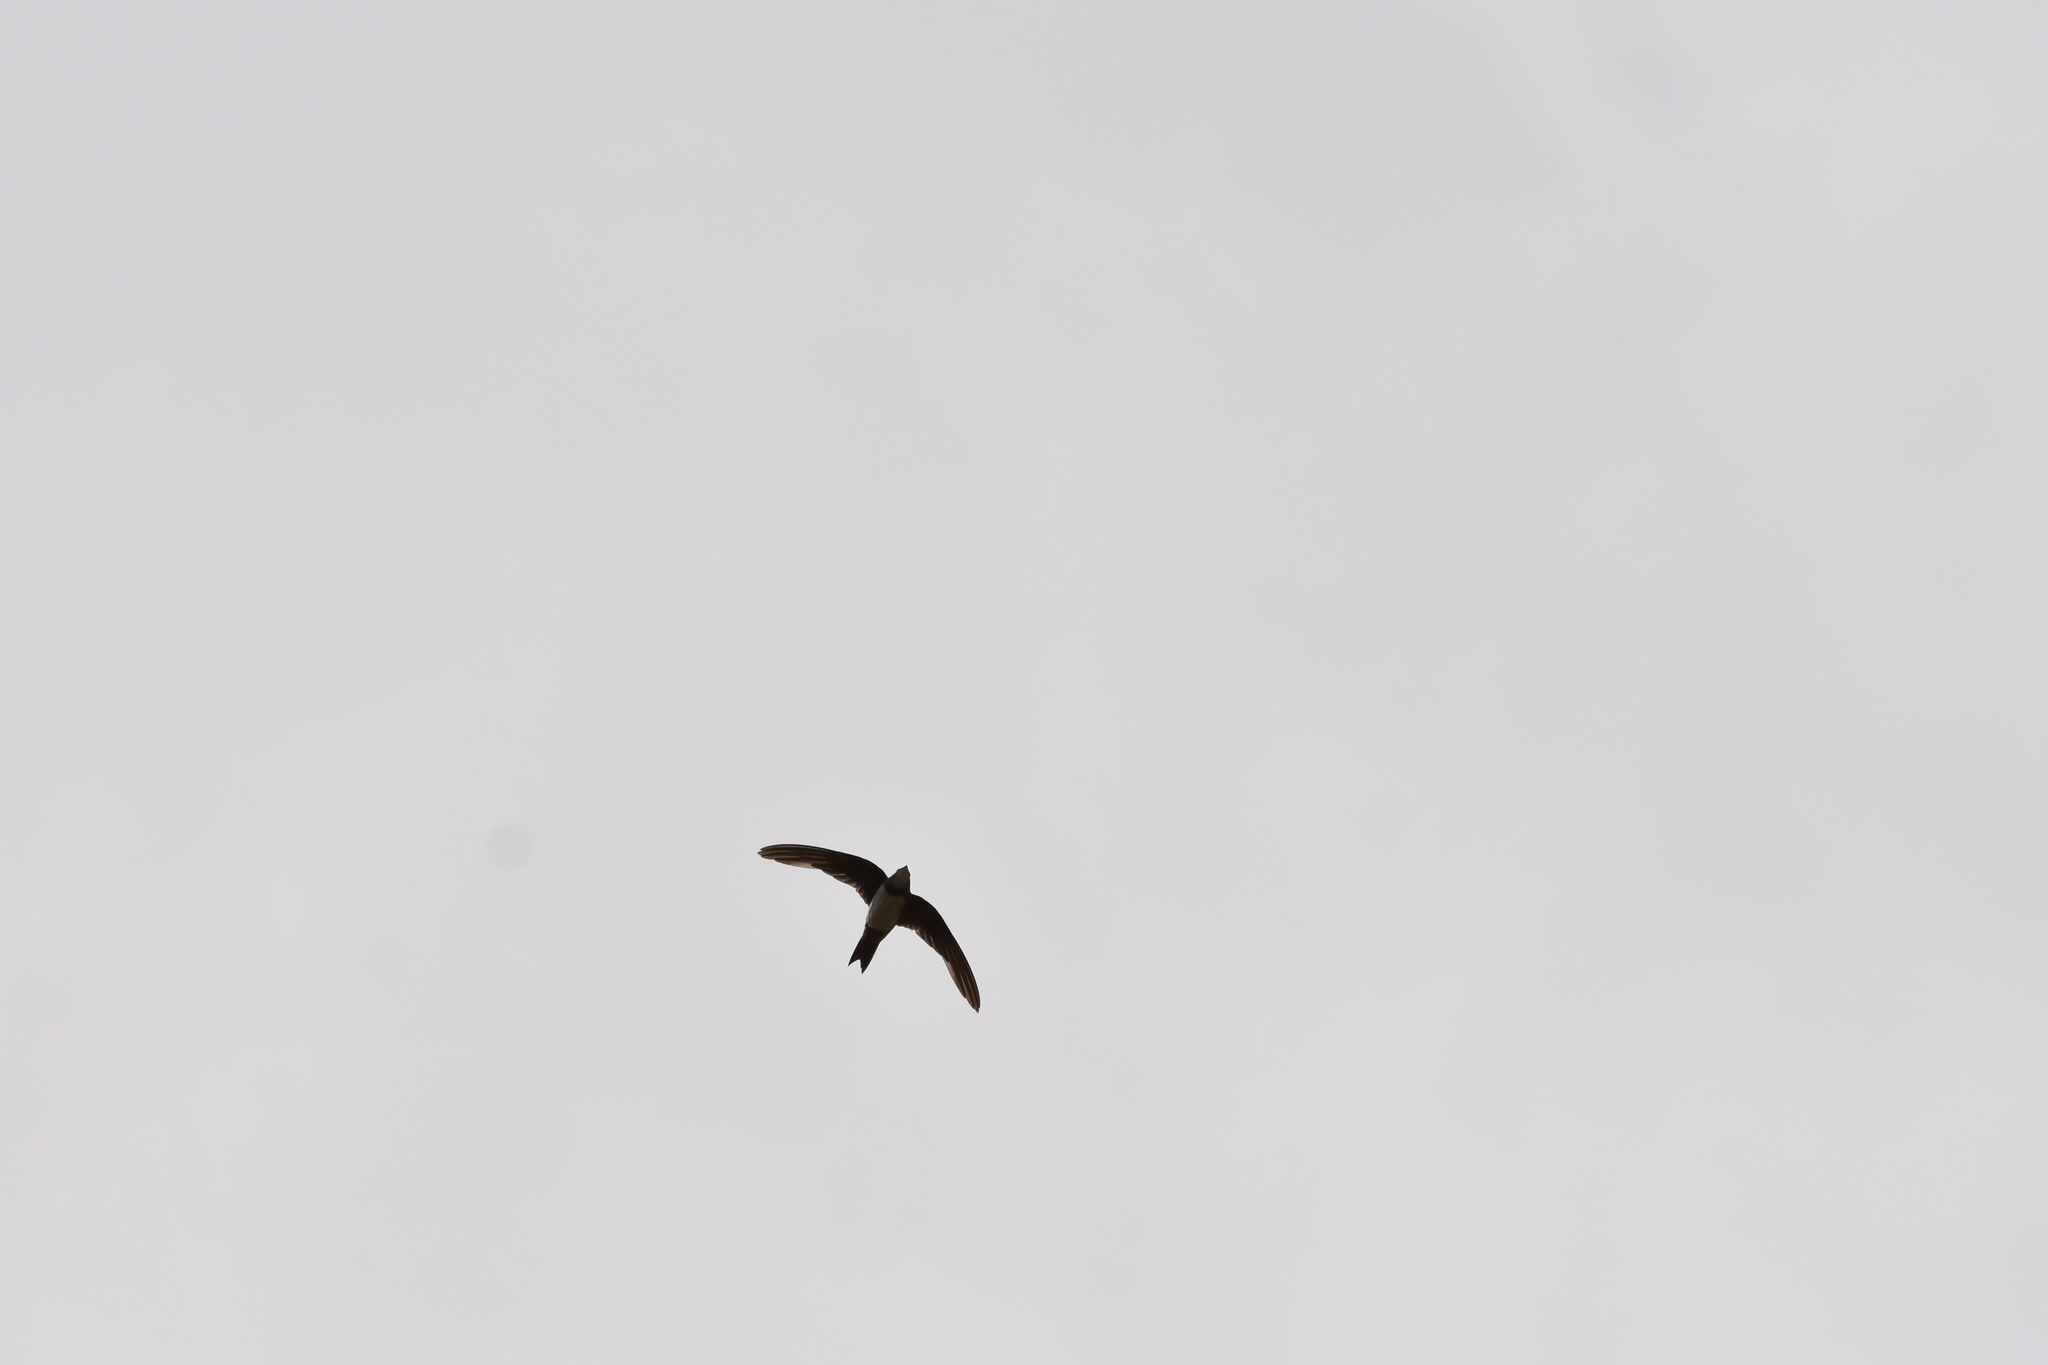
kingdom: Animalia
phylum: Chordata
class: Aves
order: Apodiformes
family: Apodidae
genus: Tachymarptis
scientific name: Tachymarptis melba
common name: Alpine swift
